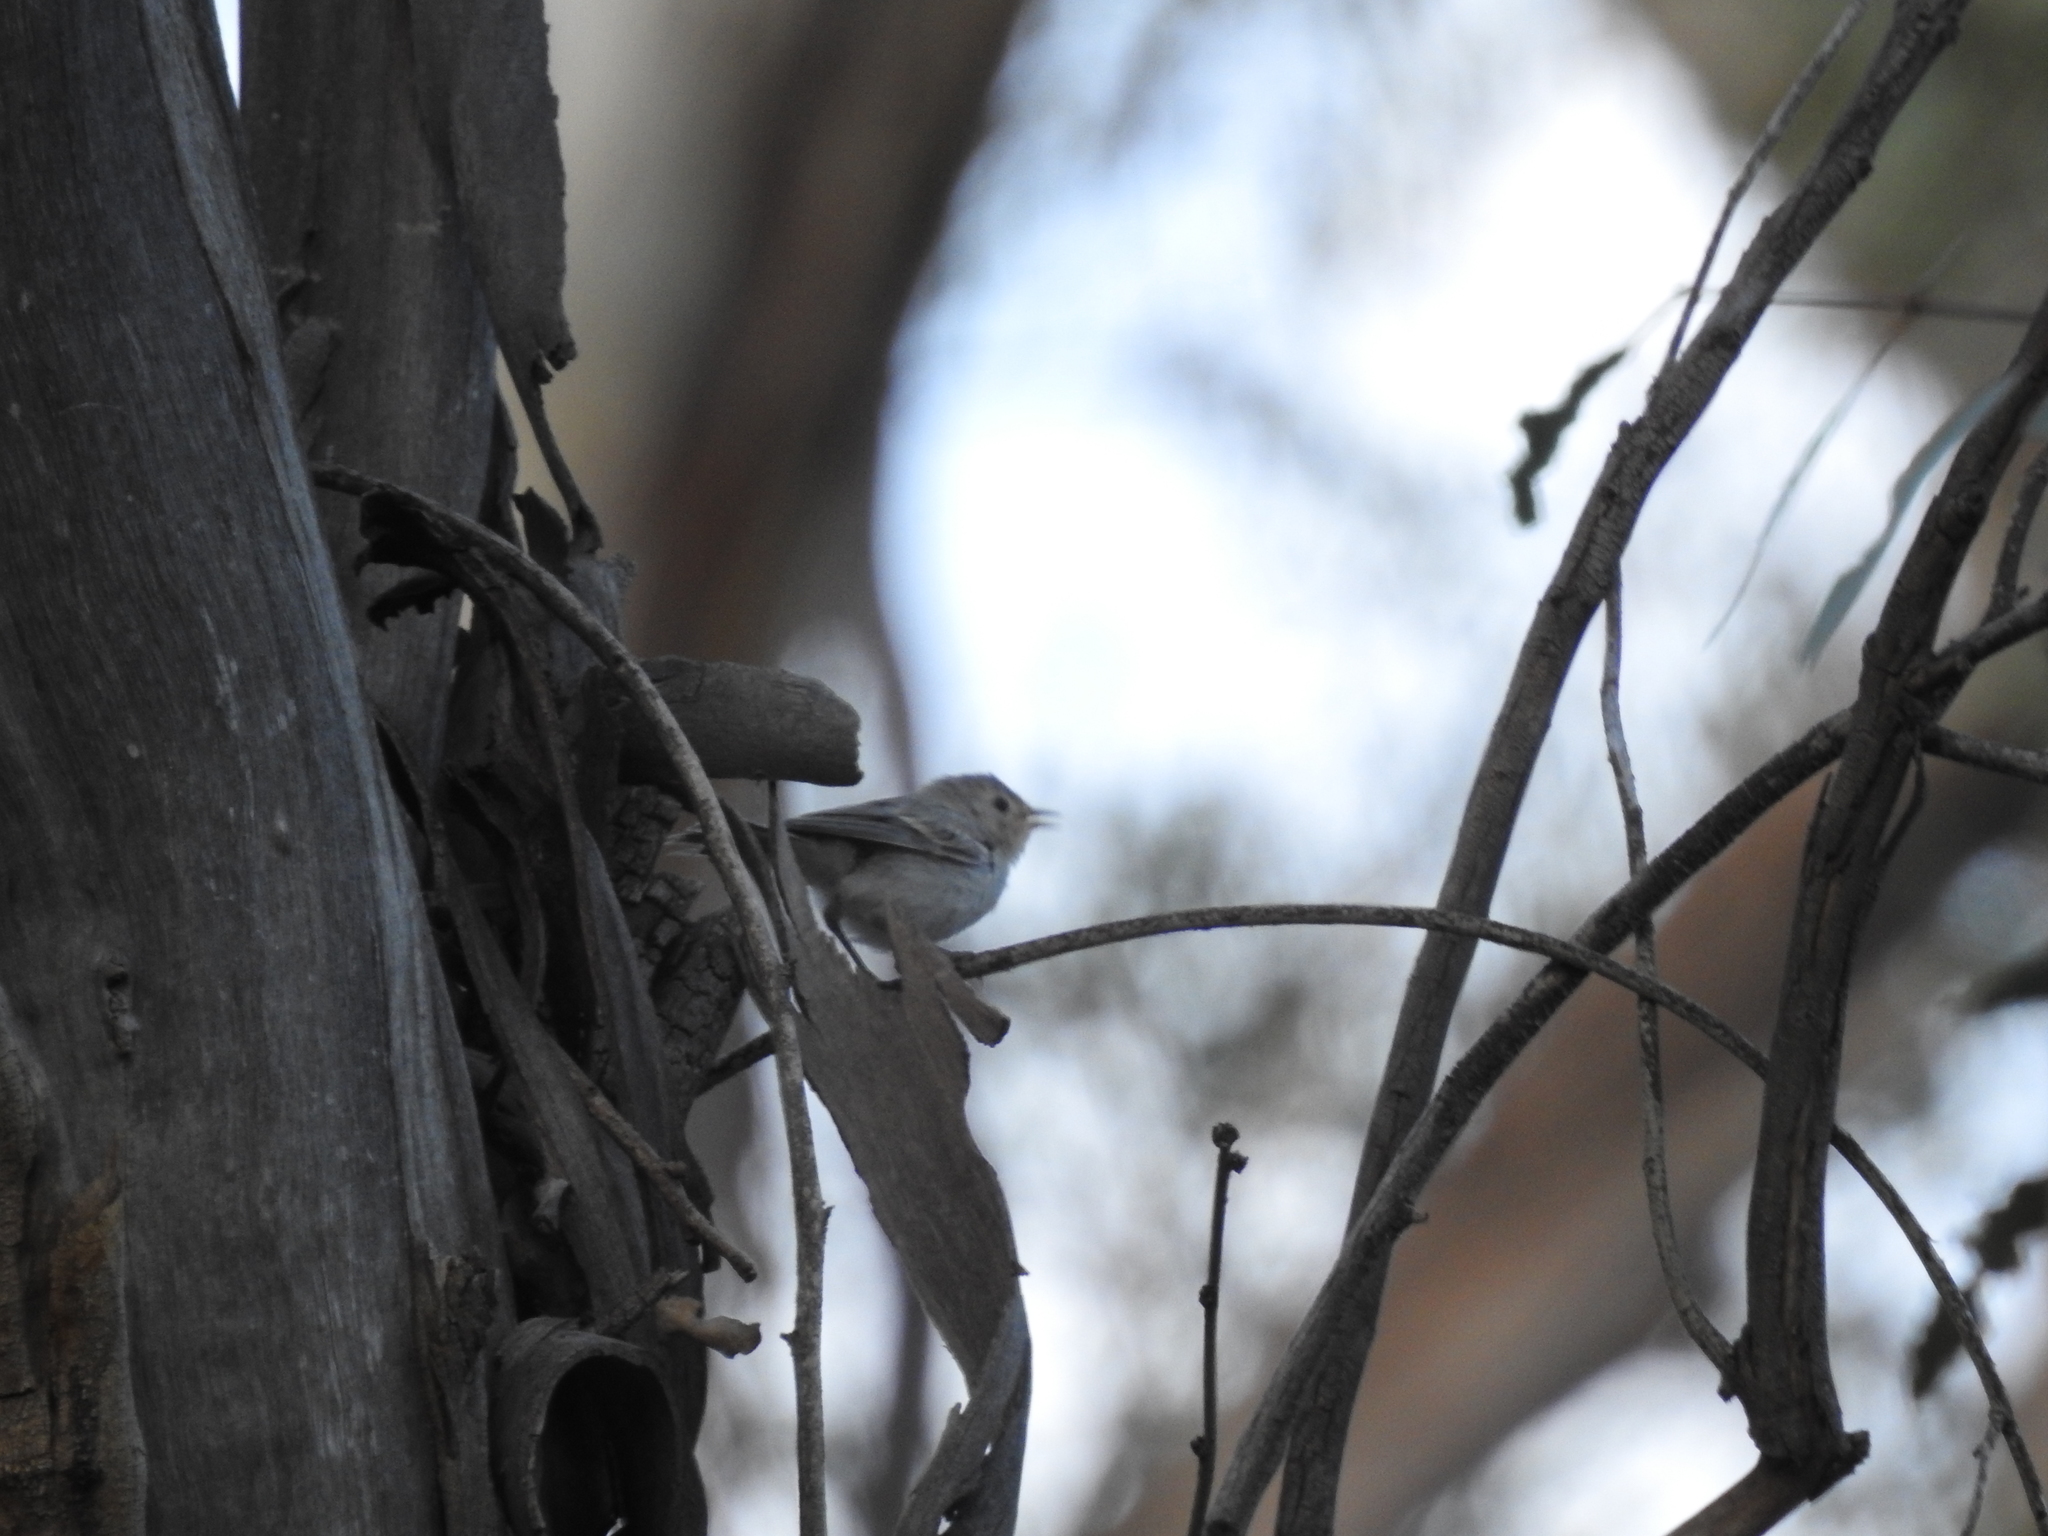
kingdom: Animalia
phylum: Chordata
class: Aves
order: Passeriformes
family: Parulidae
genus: Leiothlypis
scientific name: Leiothlypis luciae
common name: Lucy's warbler
